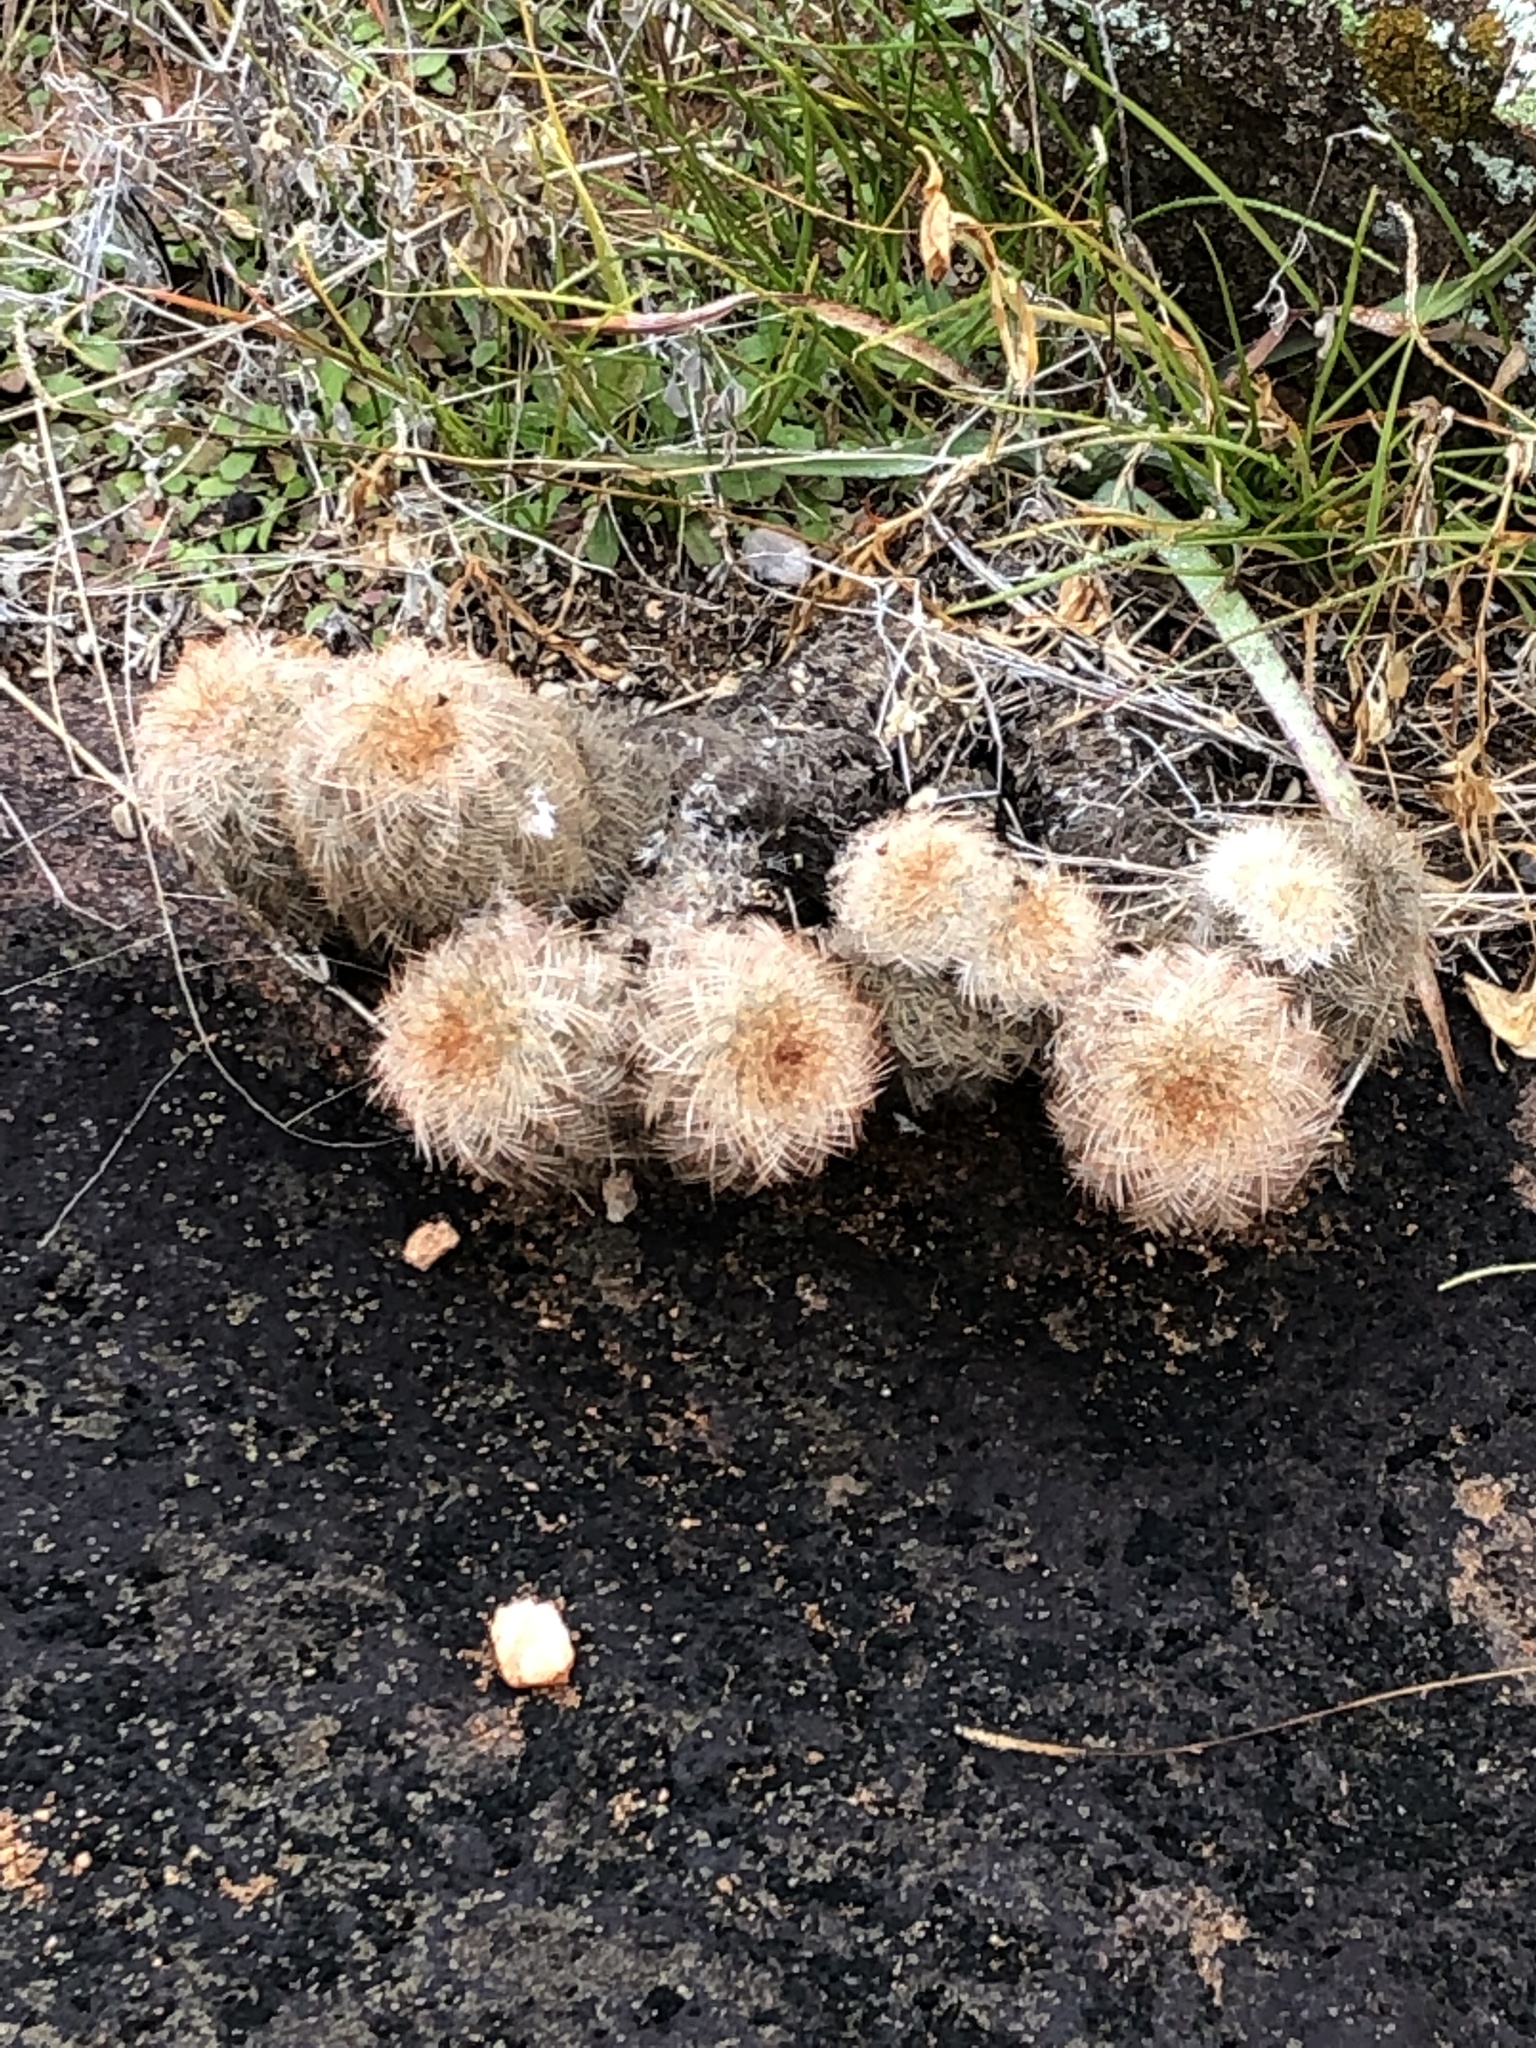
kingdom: Plantae
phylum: Tracheophyta
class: Magnoliopsida
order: Caryophyllales
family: Cactaceae
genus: Echinocereus
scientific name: Echinocereus reichenbachii
